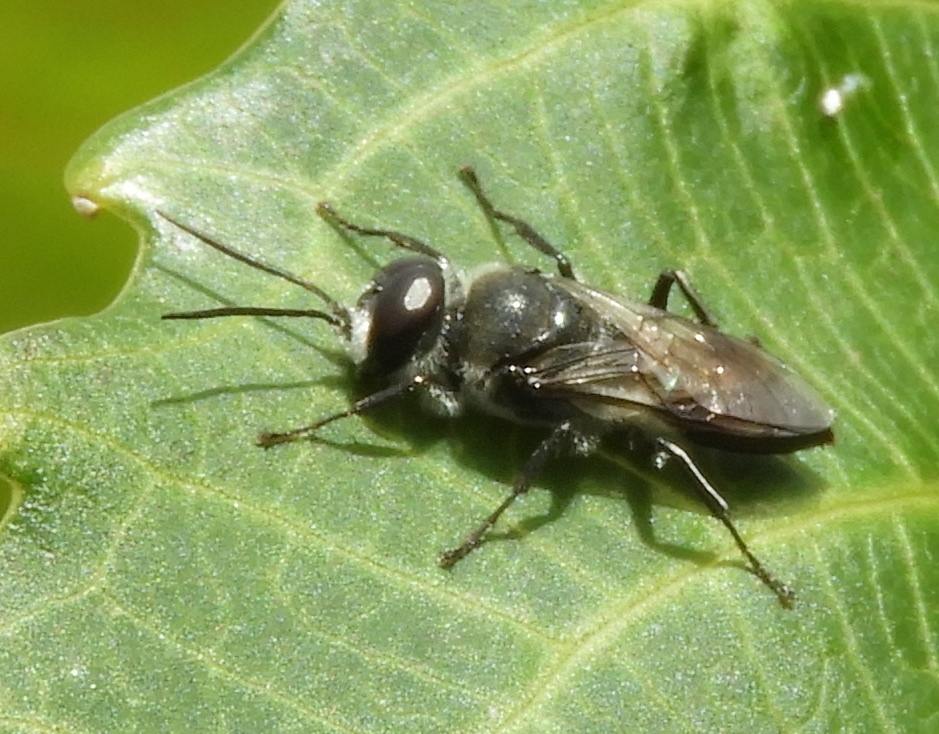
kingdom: Animalia
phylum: Arthropoda
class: Insecta
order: Hymenoptera
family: Crabronidae
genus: Astata
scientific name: Astata
